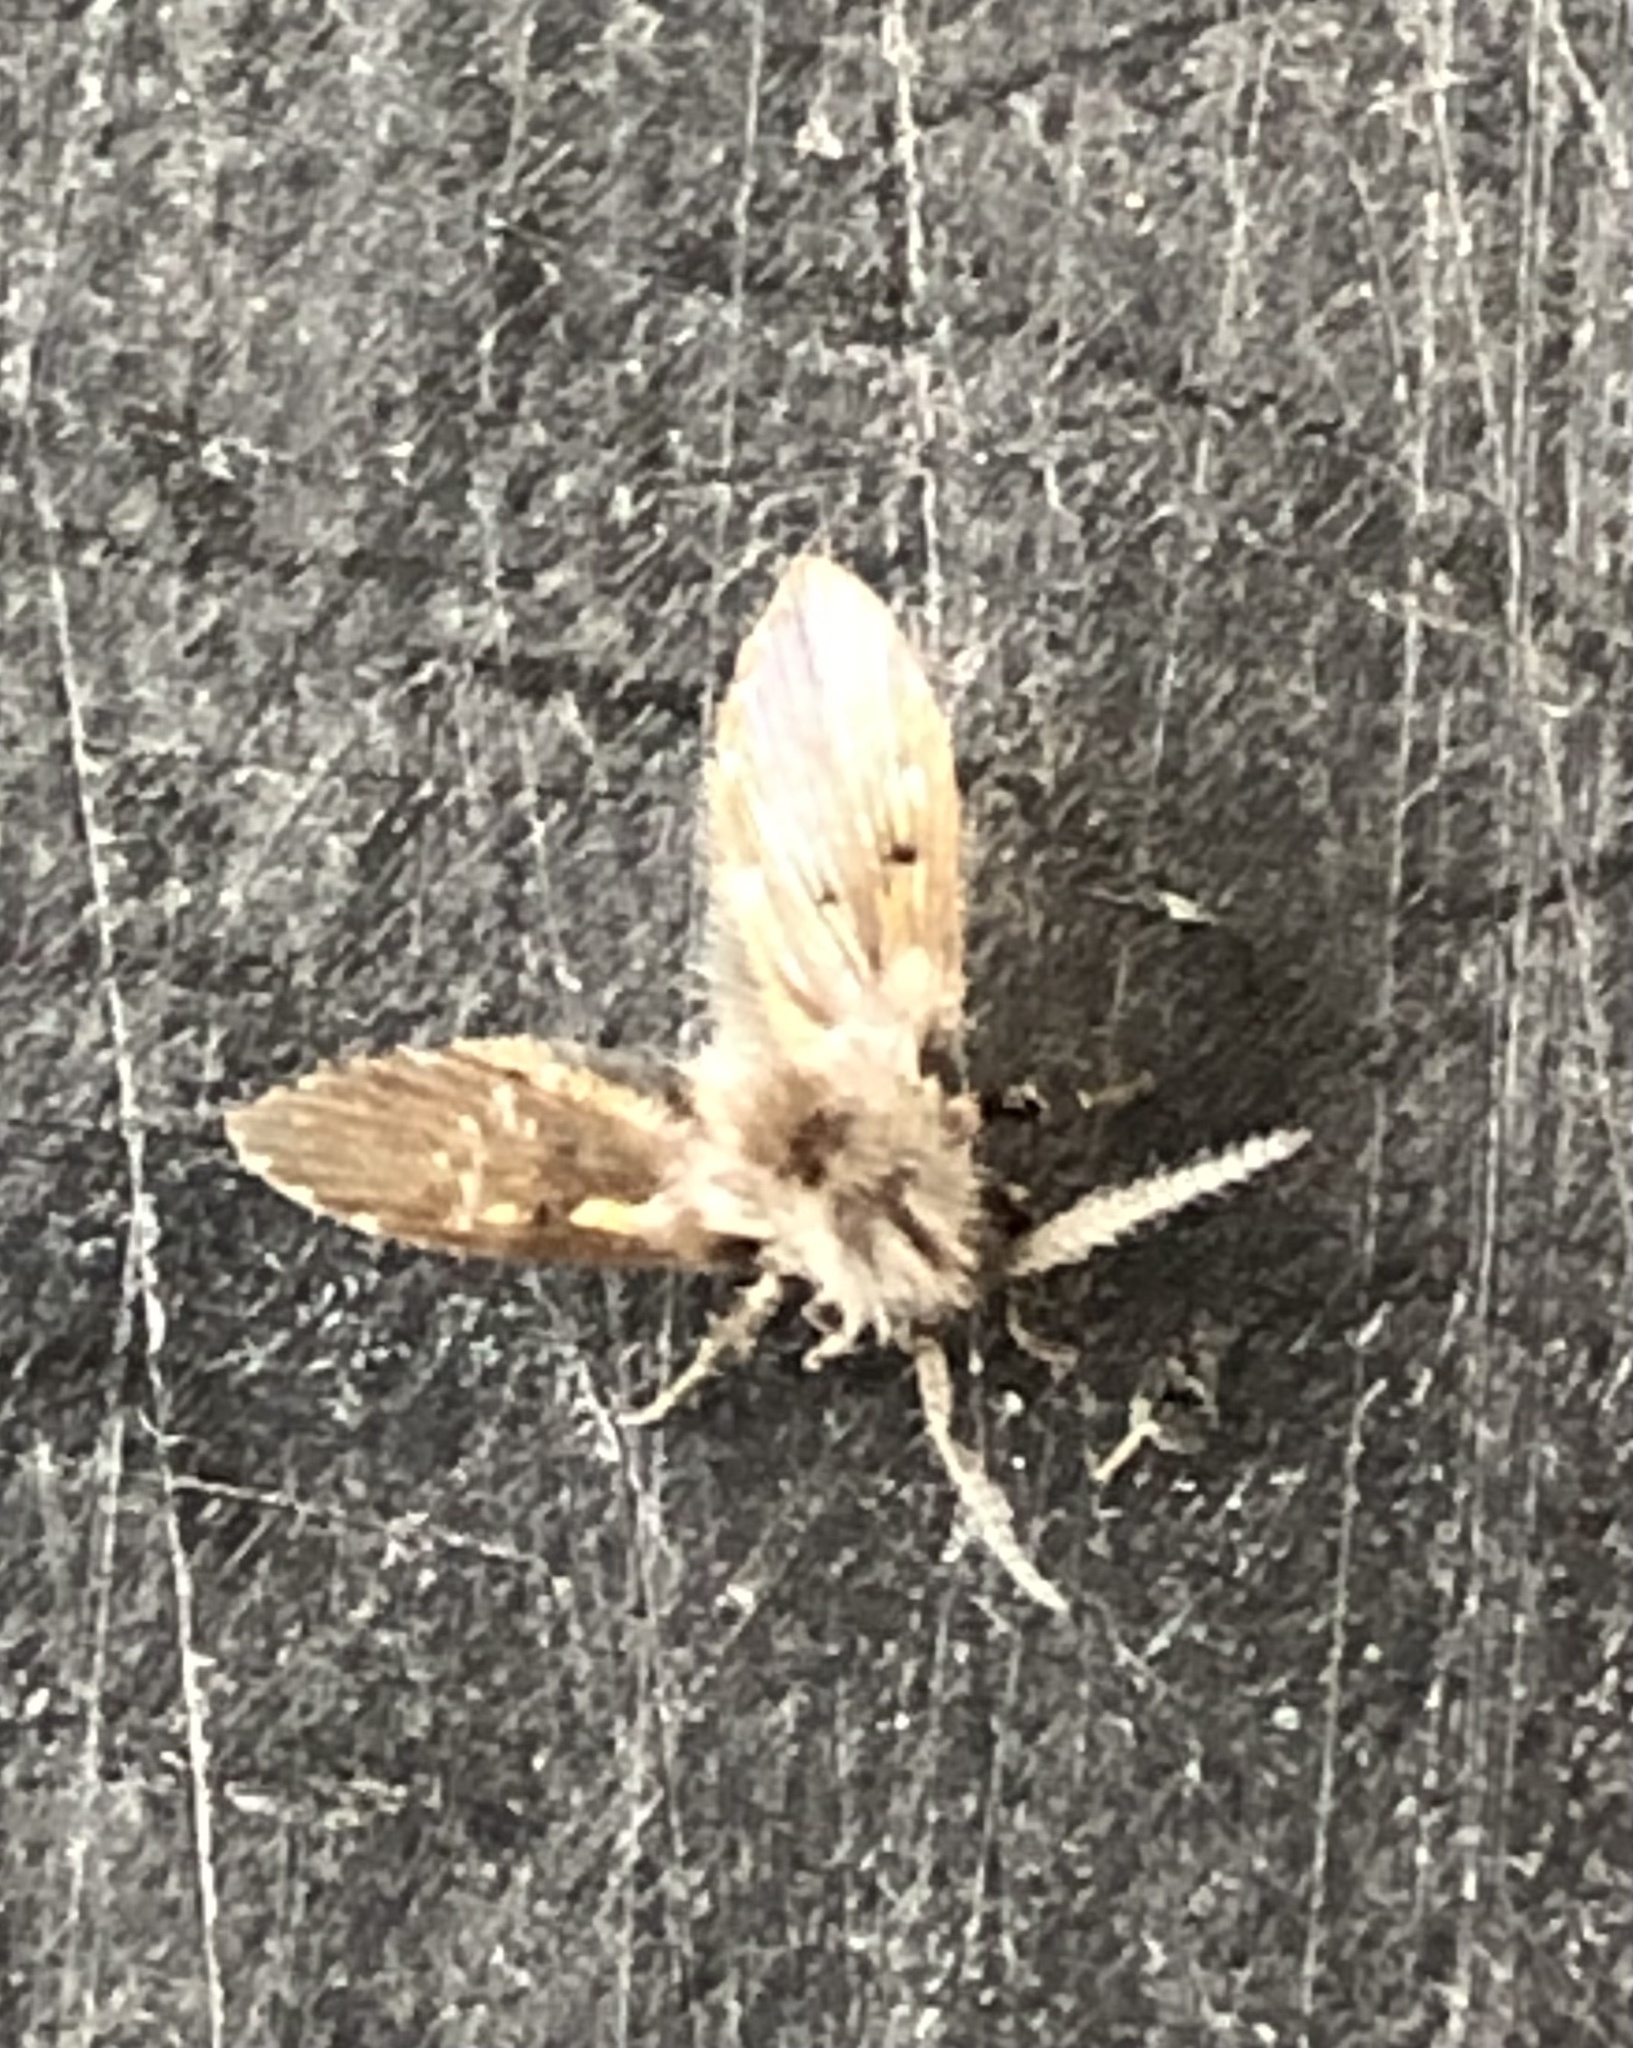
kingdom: Animalia
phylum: Arthropoda
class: Insecta
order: Diptera
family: Psychodidae
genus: Clogmia
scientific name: Clogmia albipunctatus
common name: White-spotted moth fly
